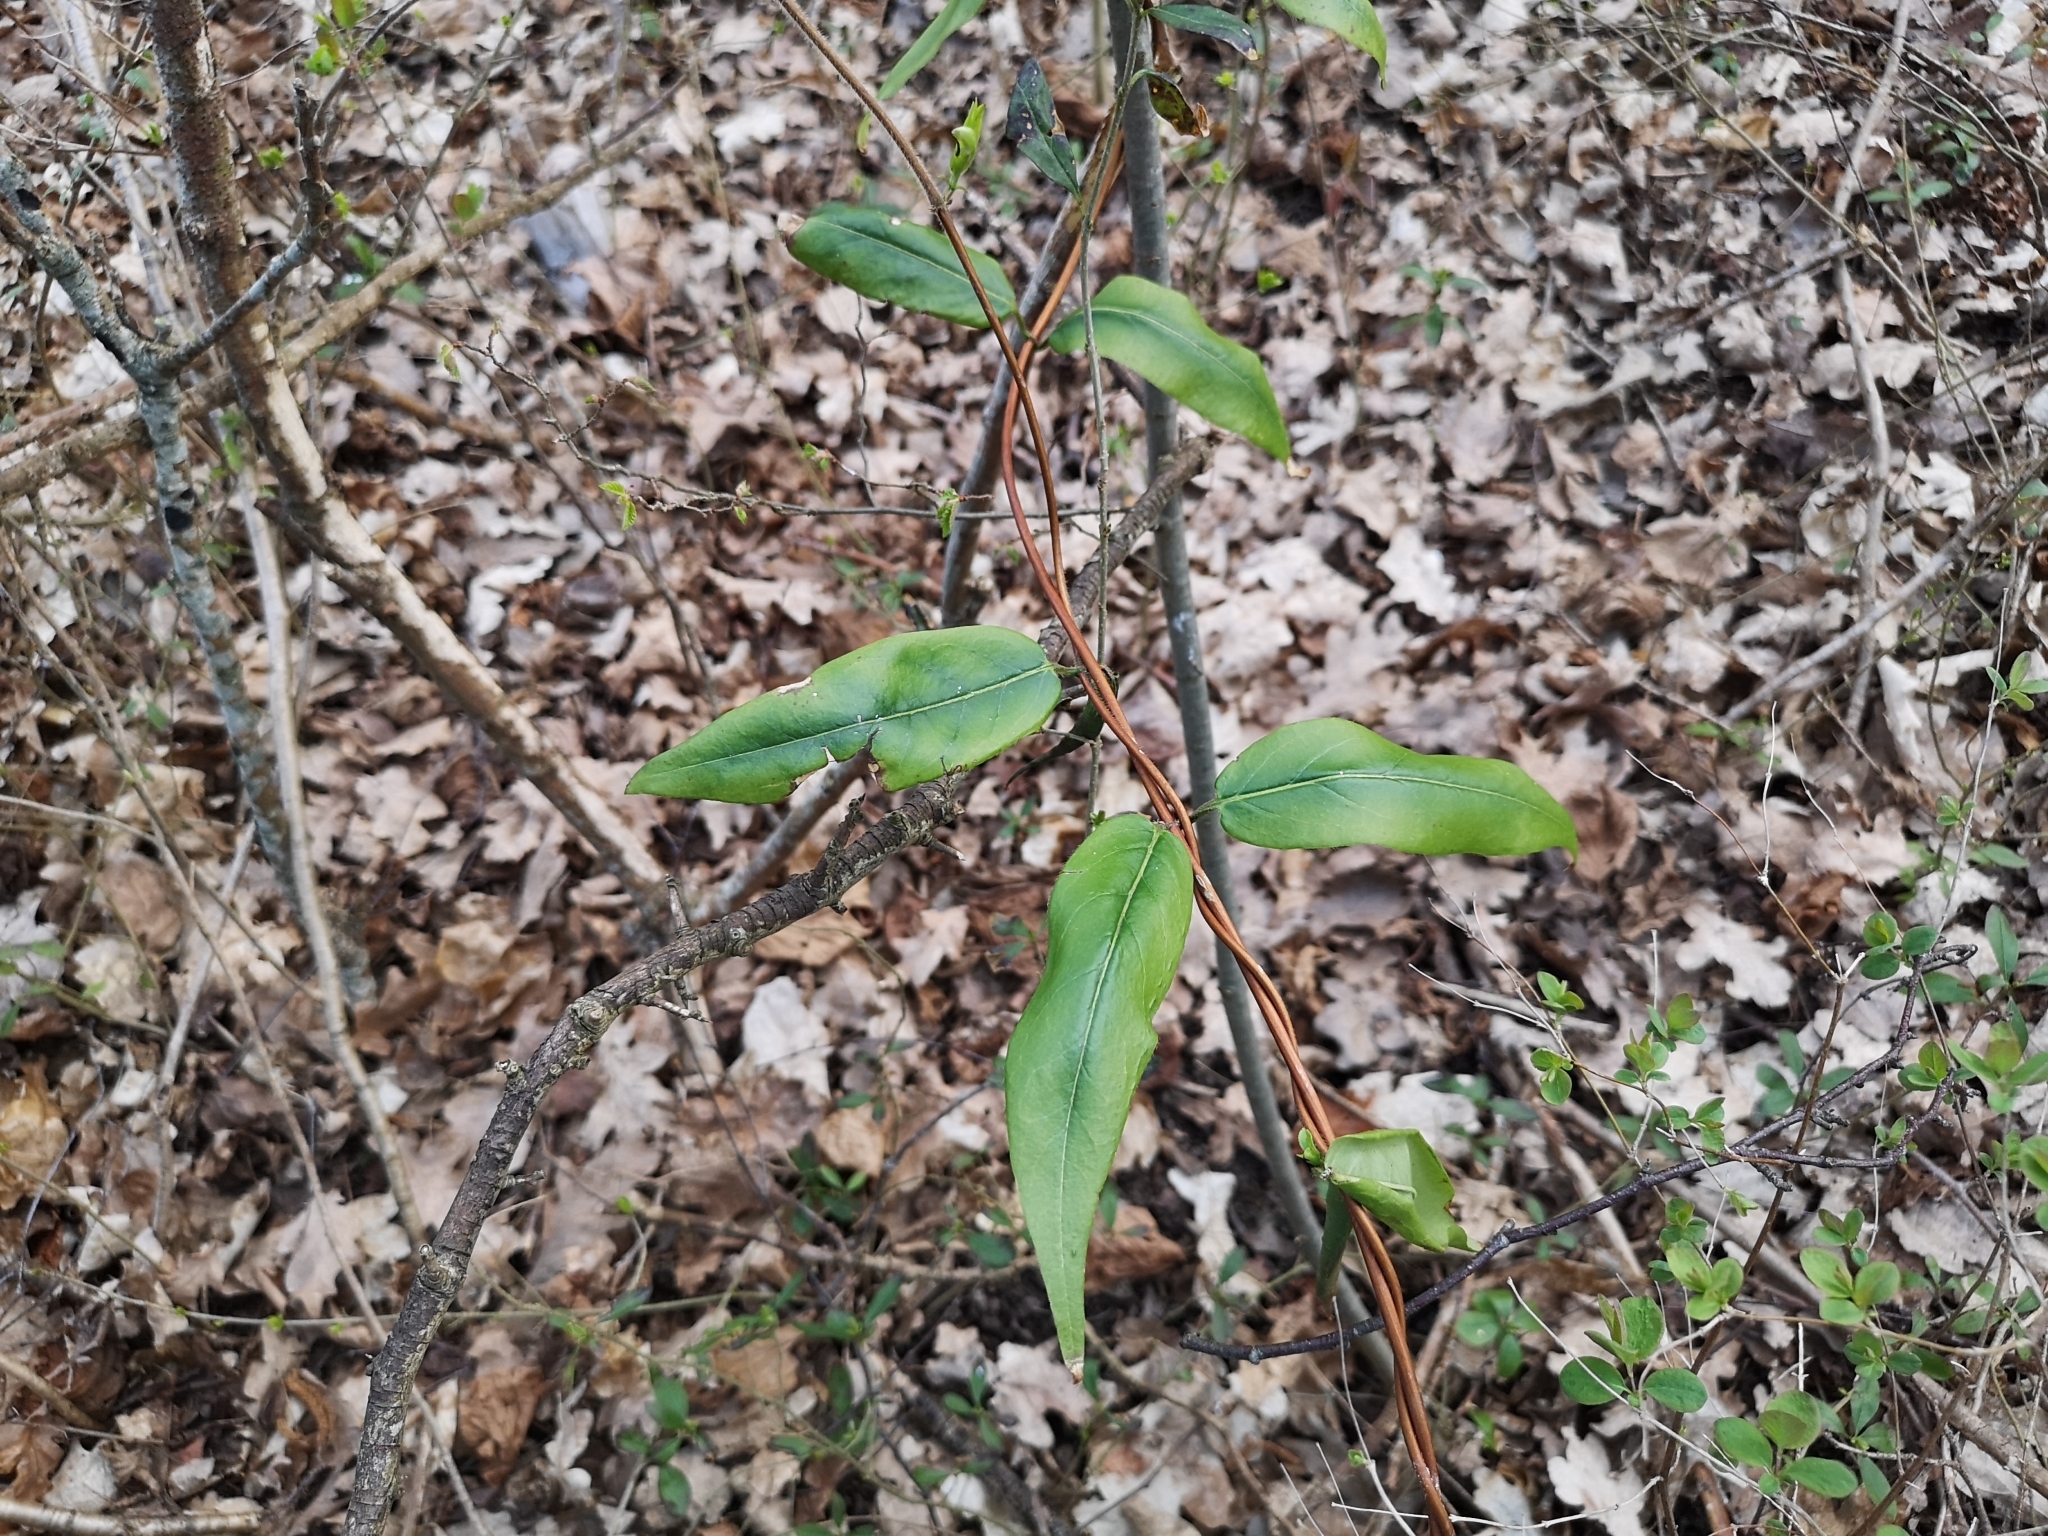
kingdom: Plantae
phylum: Tracheophyta
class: Magnoliopsida
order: Dipsacales
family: Caprifoliaceae
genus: Lonicera
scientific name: Lonicera acuminata
